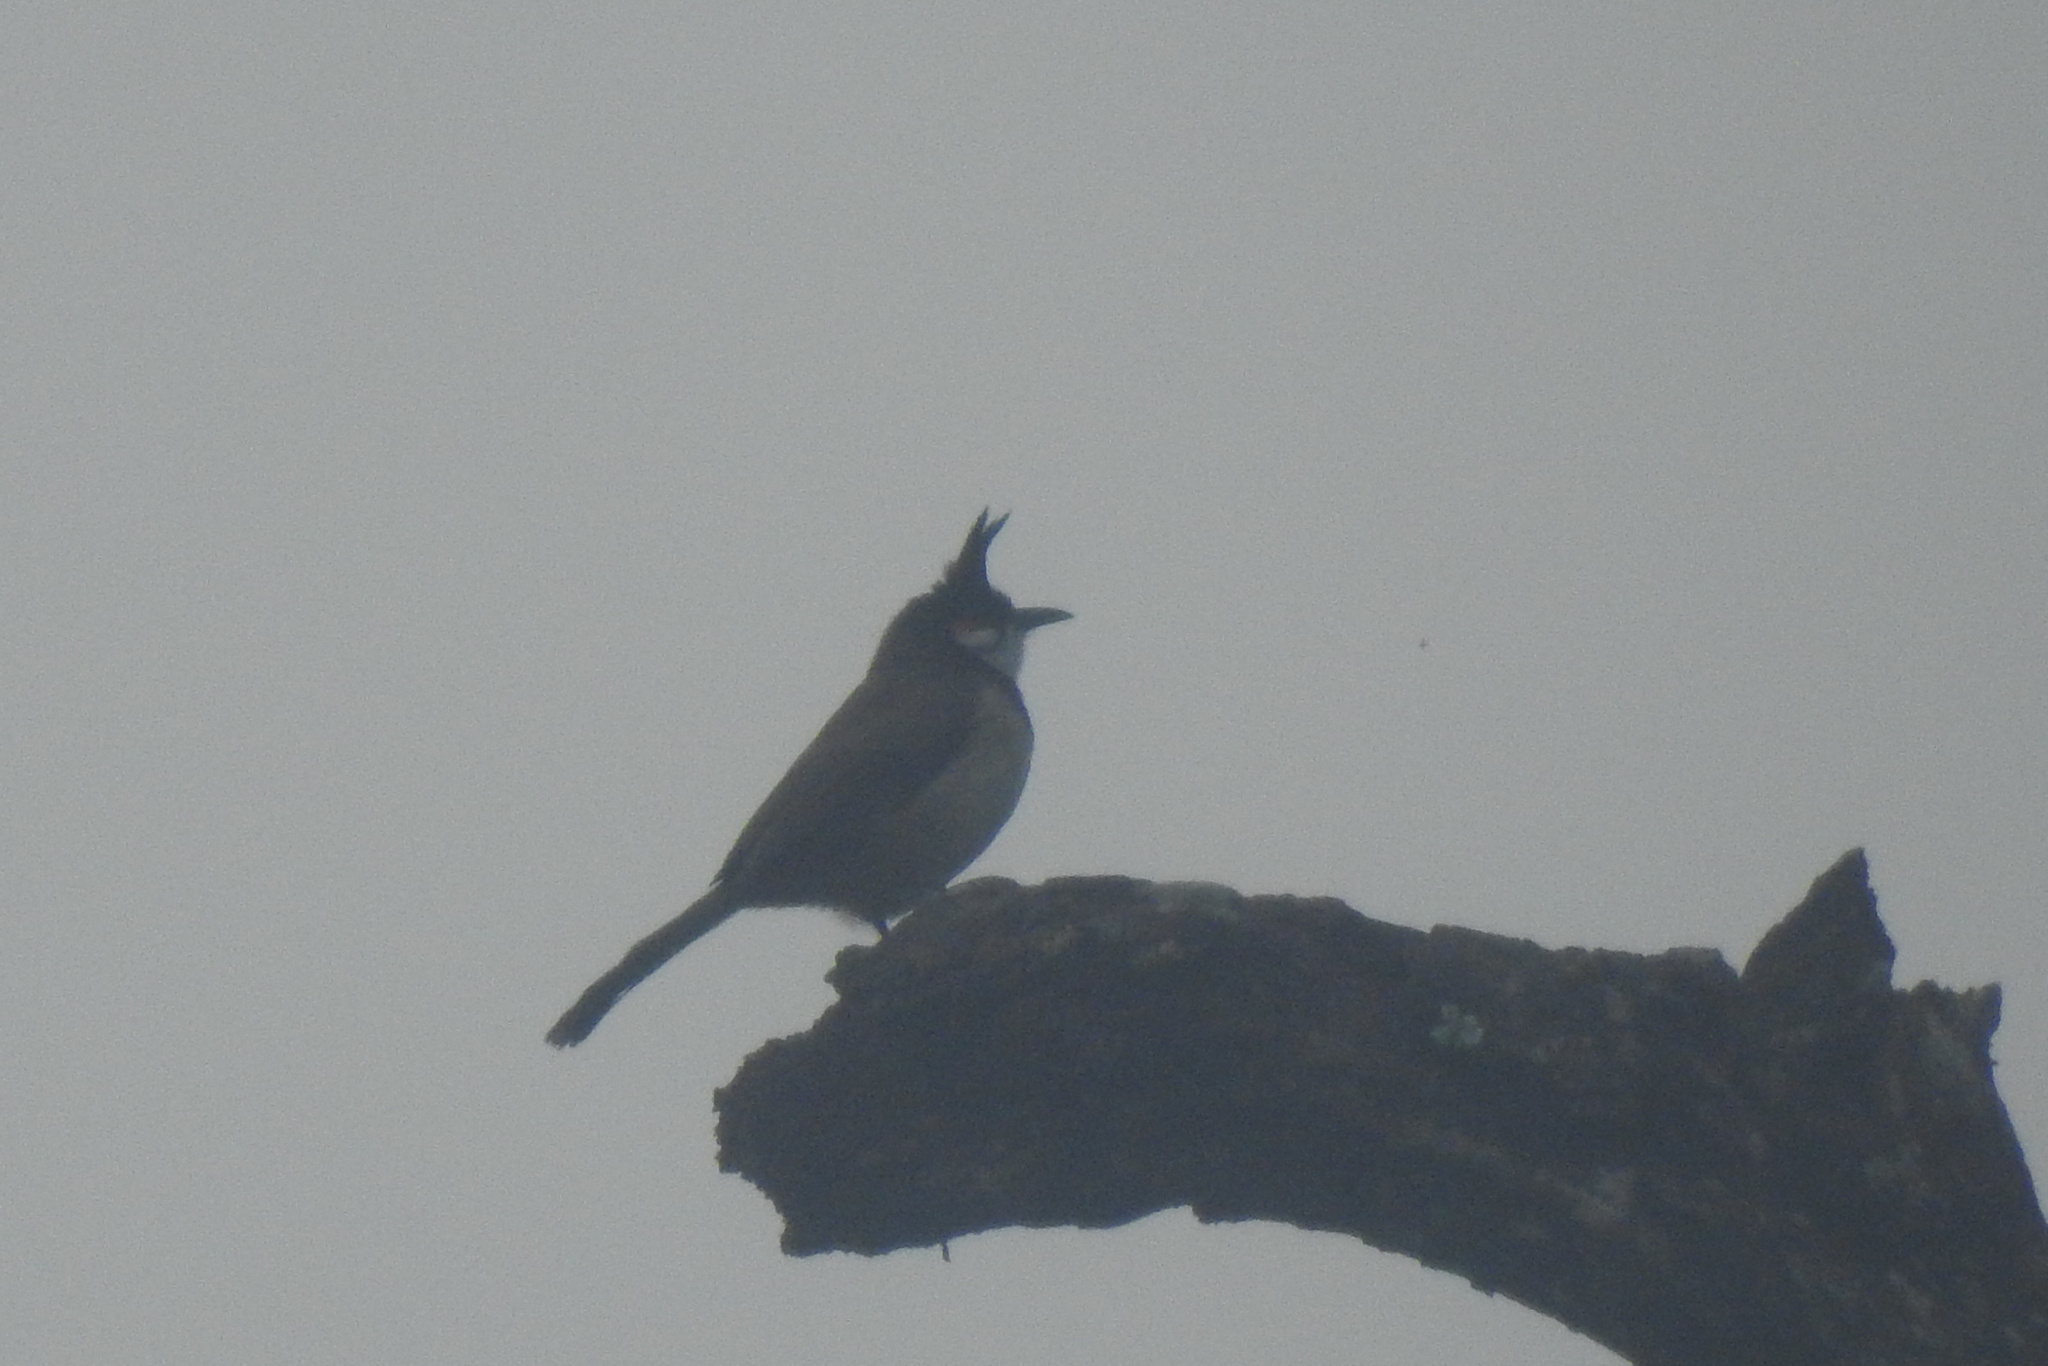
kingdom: Animalia
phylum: Chordata
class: Aves
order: Passeriformes
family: Pycnonotidae
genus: Pycnonotus
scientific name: Pycnonotus jocosus
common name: Red-whiskered bulbul
